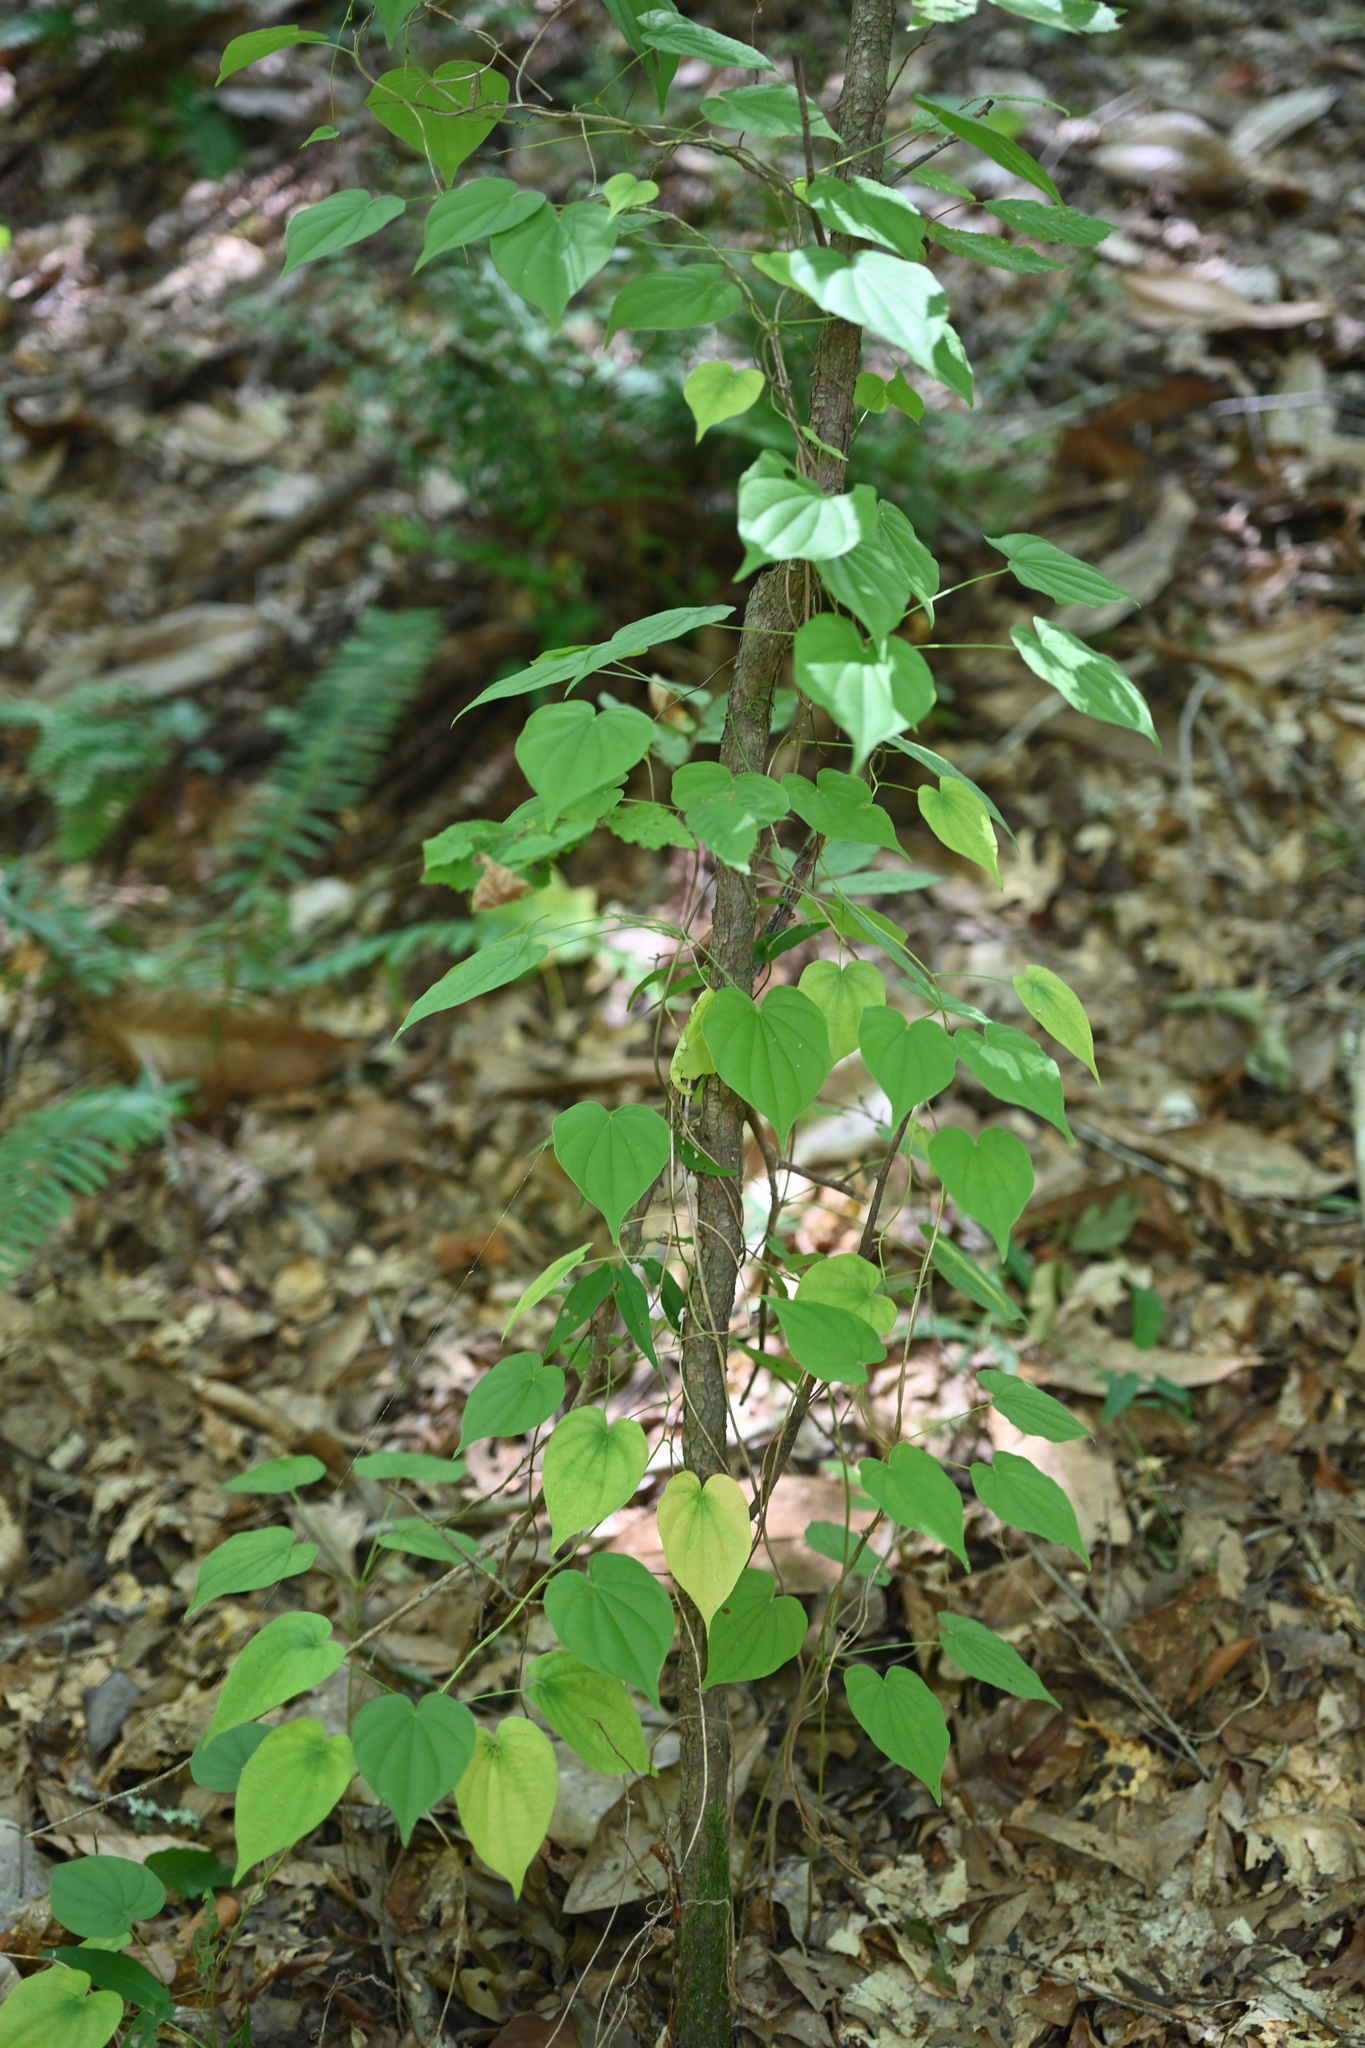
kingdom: Plantae
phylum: Tracheophyta
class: Liliopsida
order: Dioscoreales
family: Dioscoreaceae
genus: Dioscorea
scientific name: Dioscorea villosa
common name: Wild yam
